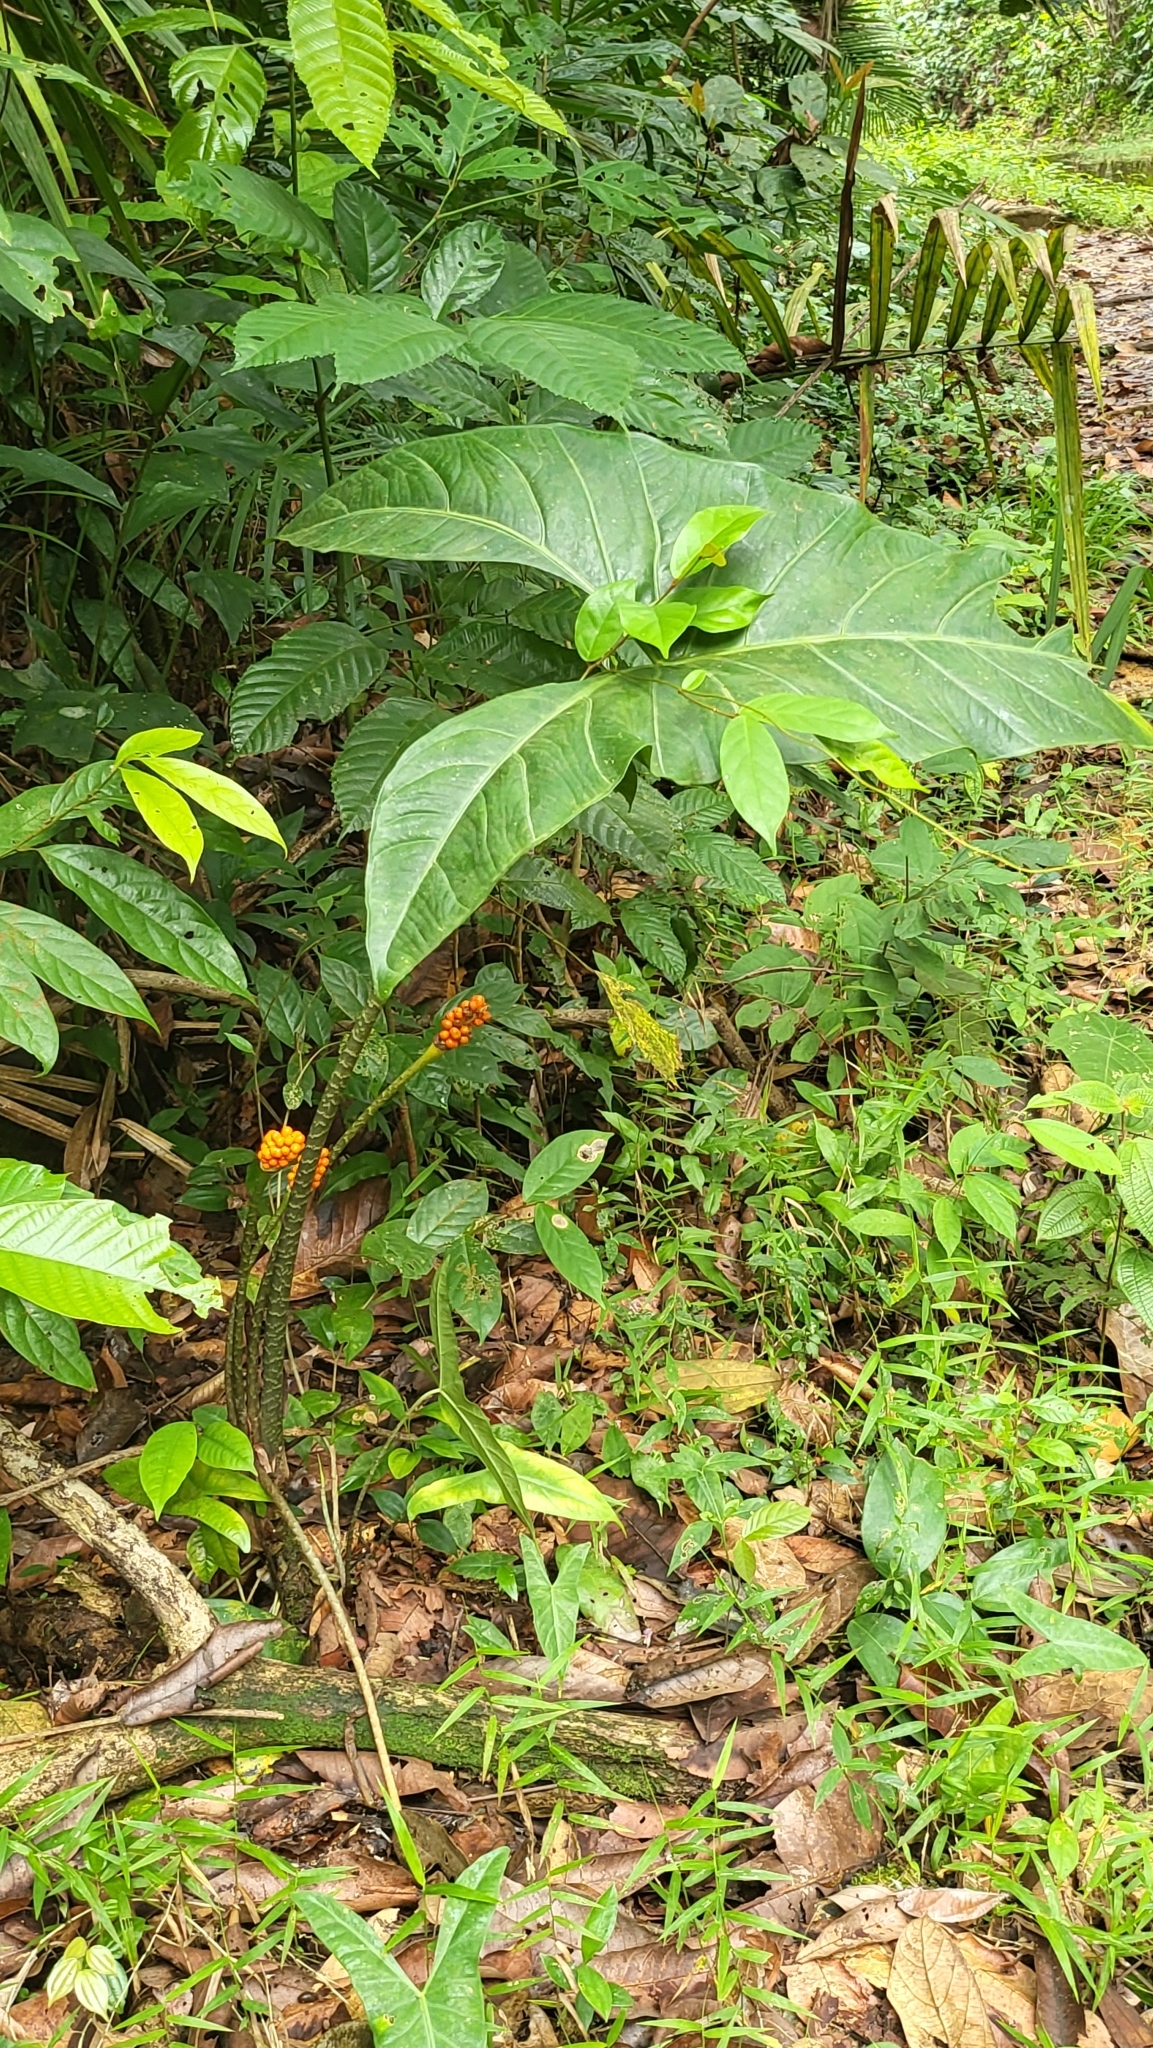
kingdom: Plantae
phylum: Tracheophyta
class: Liliopsida
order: Alismatales
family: Araceae
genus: Alocasia
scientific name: Alocasia longiloba
